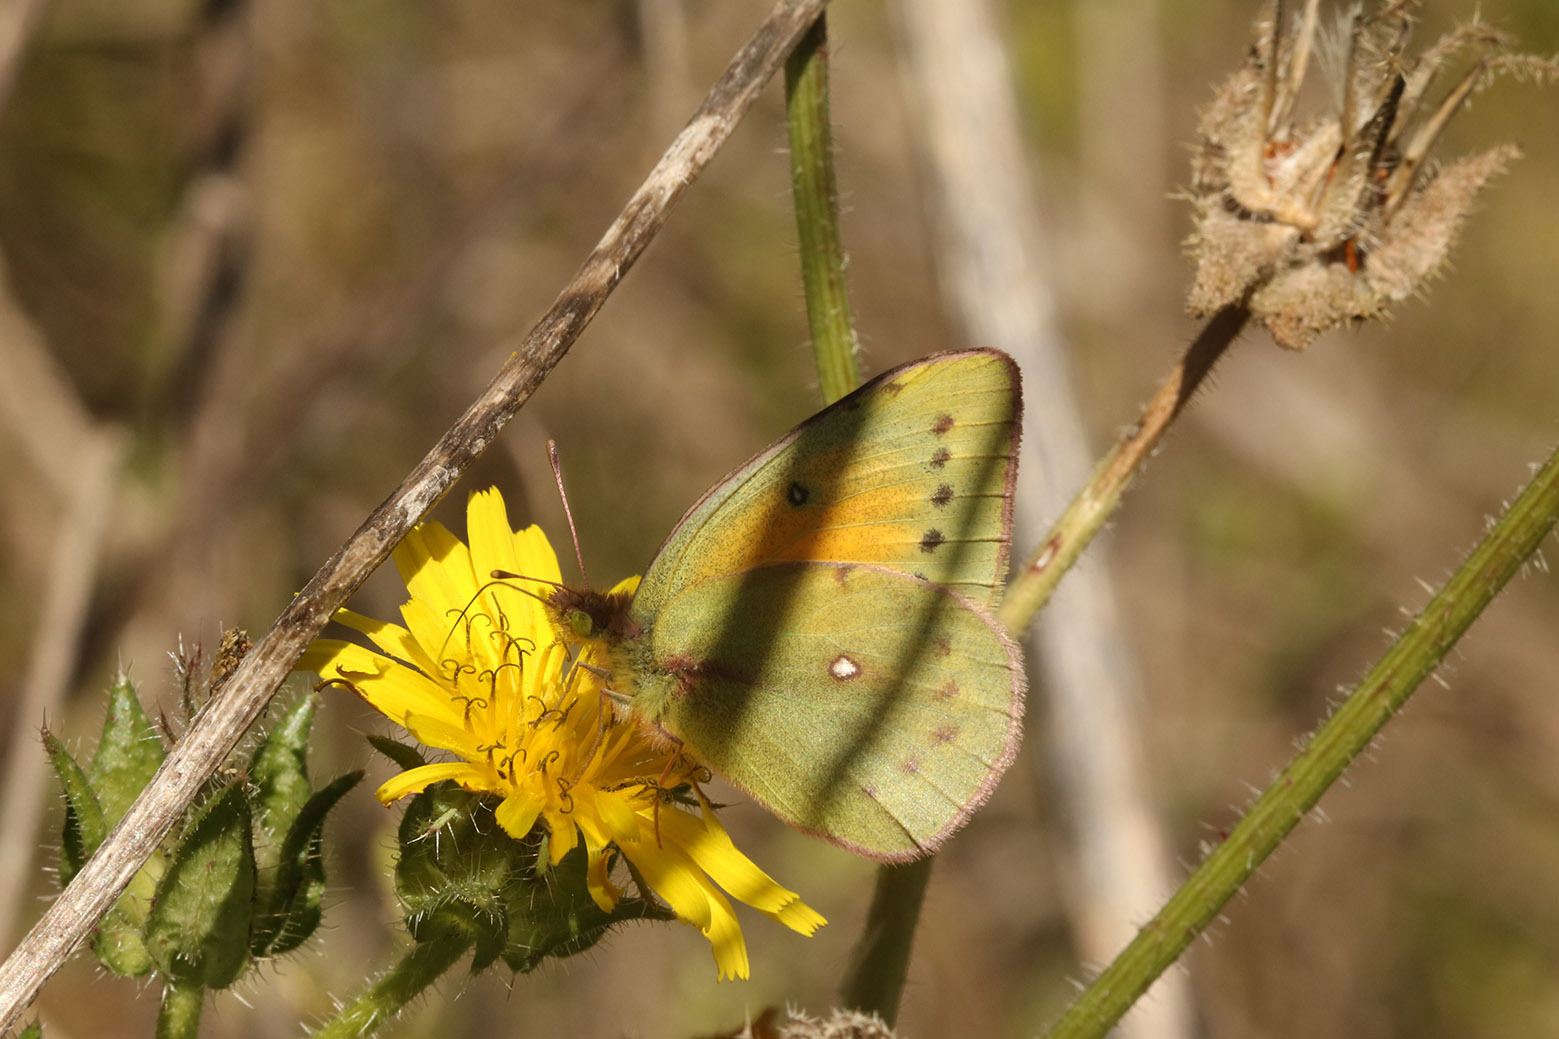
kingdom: Animalia
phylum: Arthropoda
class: Insecta
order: Lepidoptera
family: Pieridae
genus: Colias
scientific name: Colias lesbia
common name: Lesbia clouded yellow
